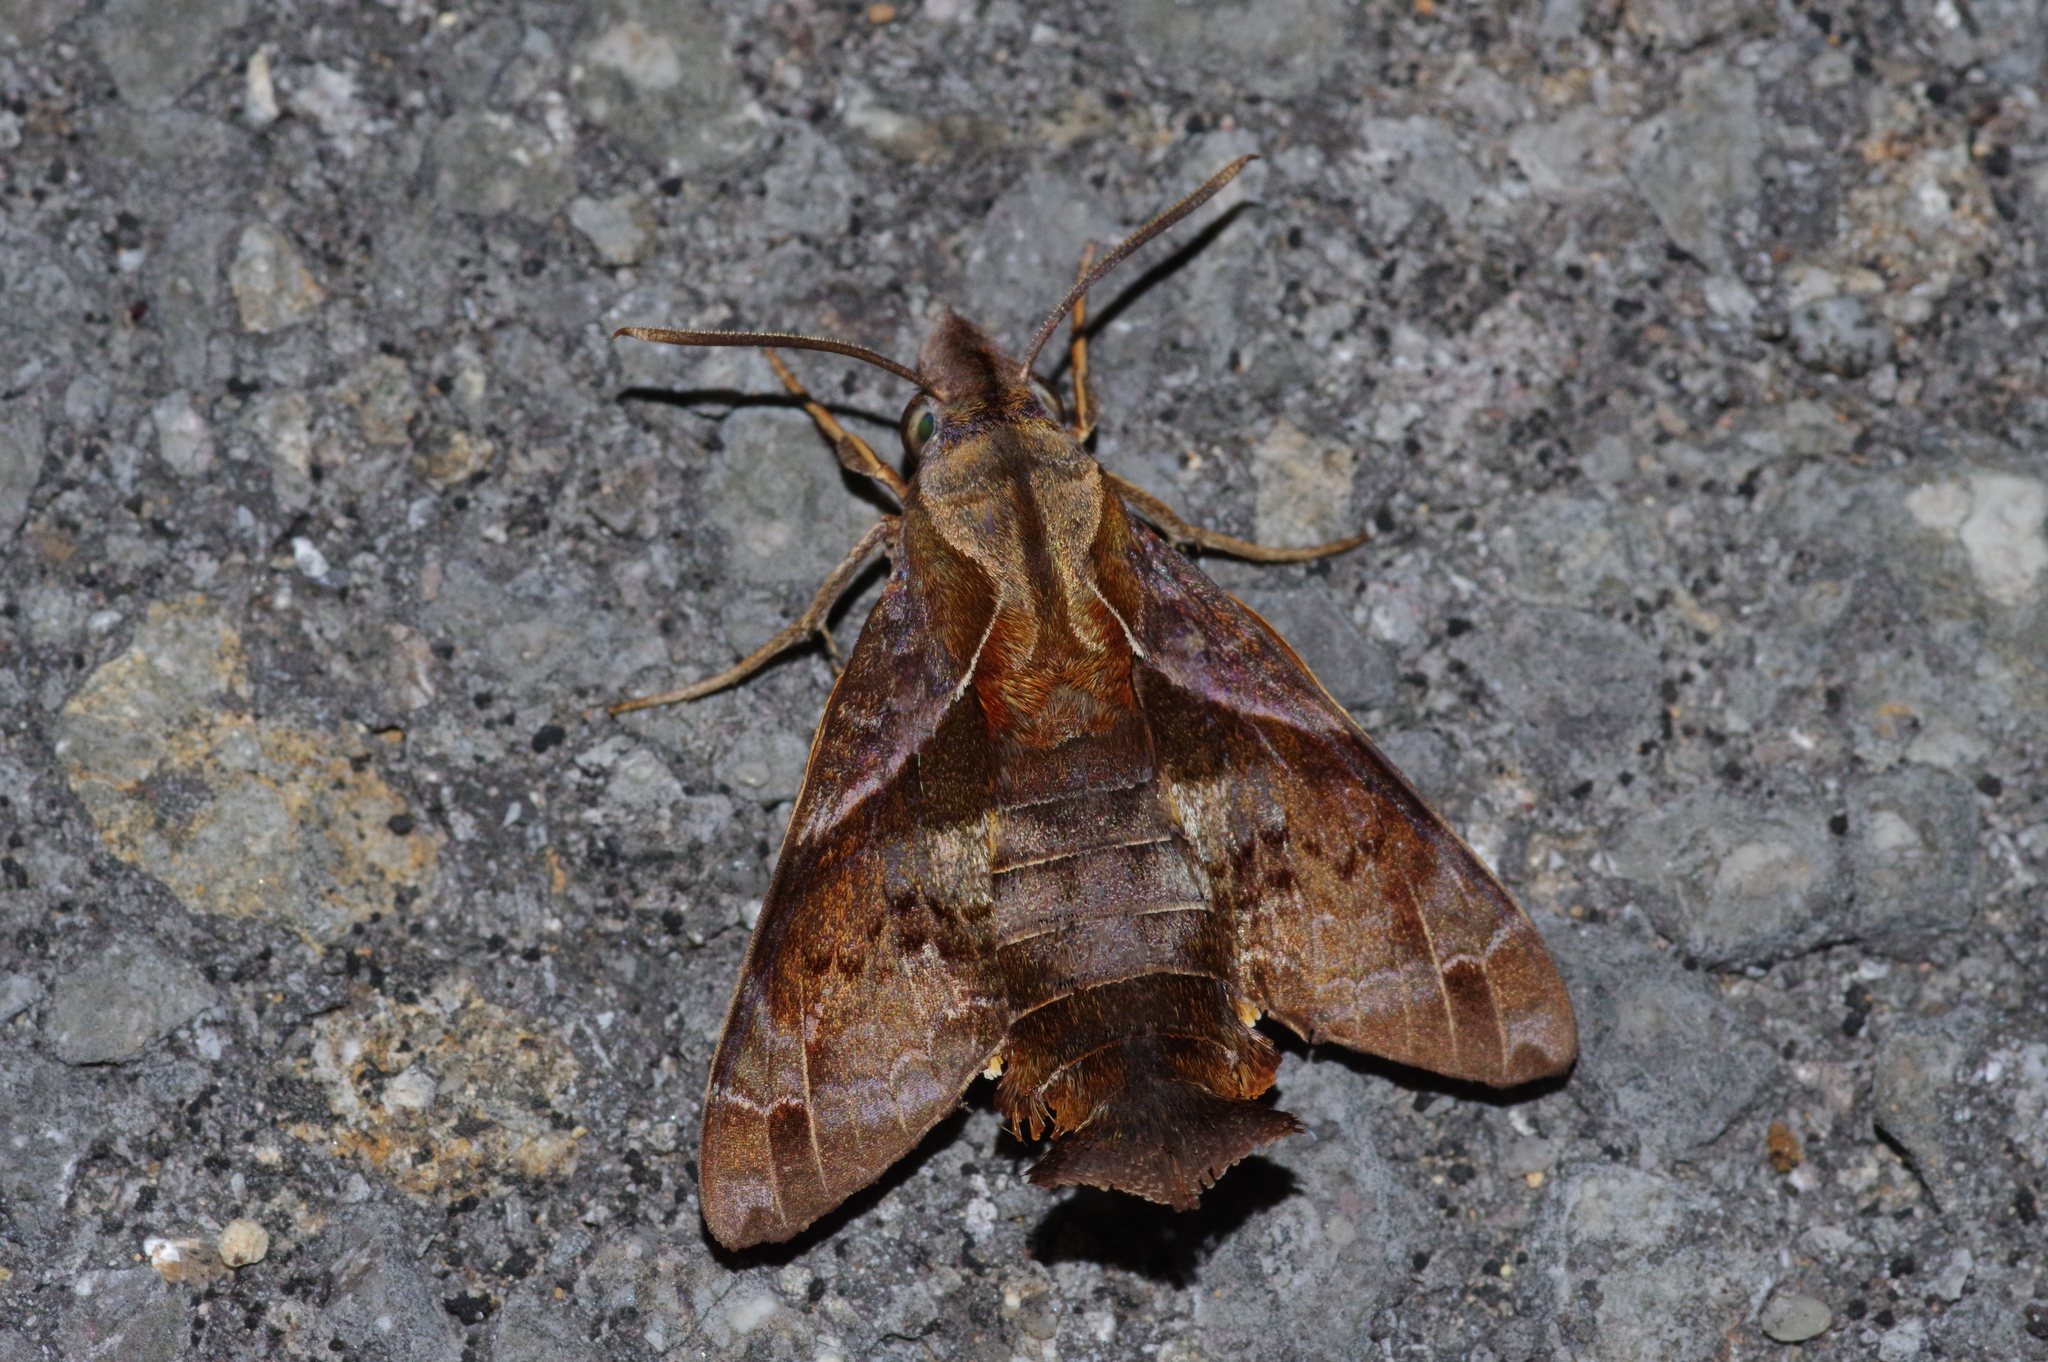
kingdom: Animalia
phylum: Arthropoda
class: Insecta
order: Lepidoptera
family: Sphingidae
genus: Macroglossum
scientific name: Macroglossum fritzei
